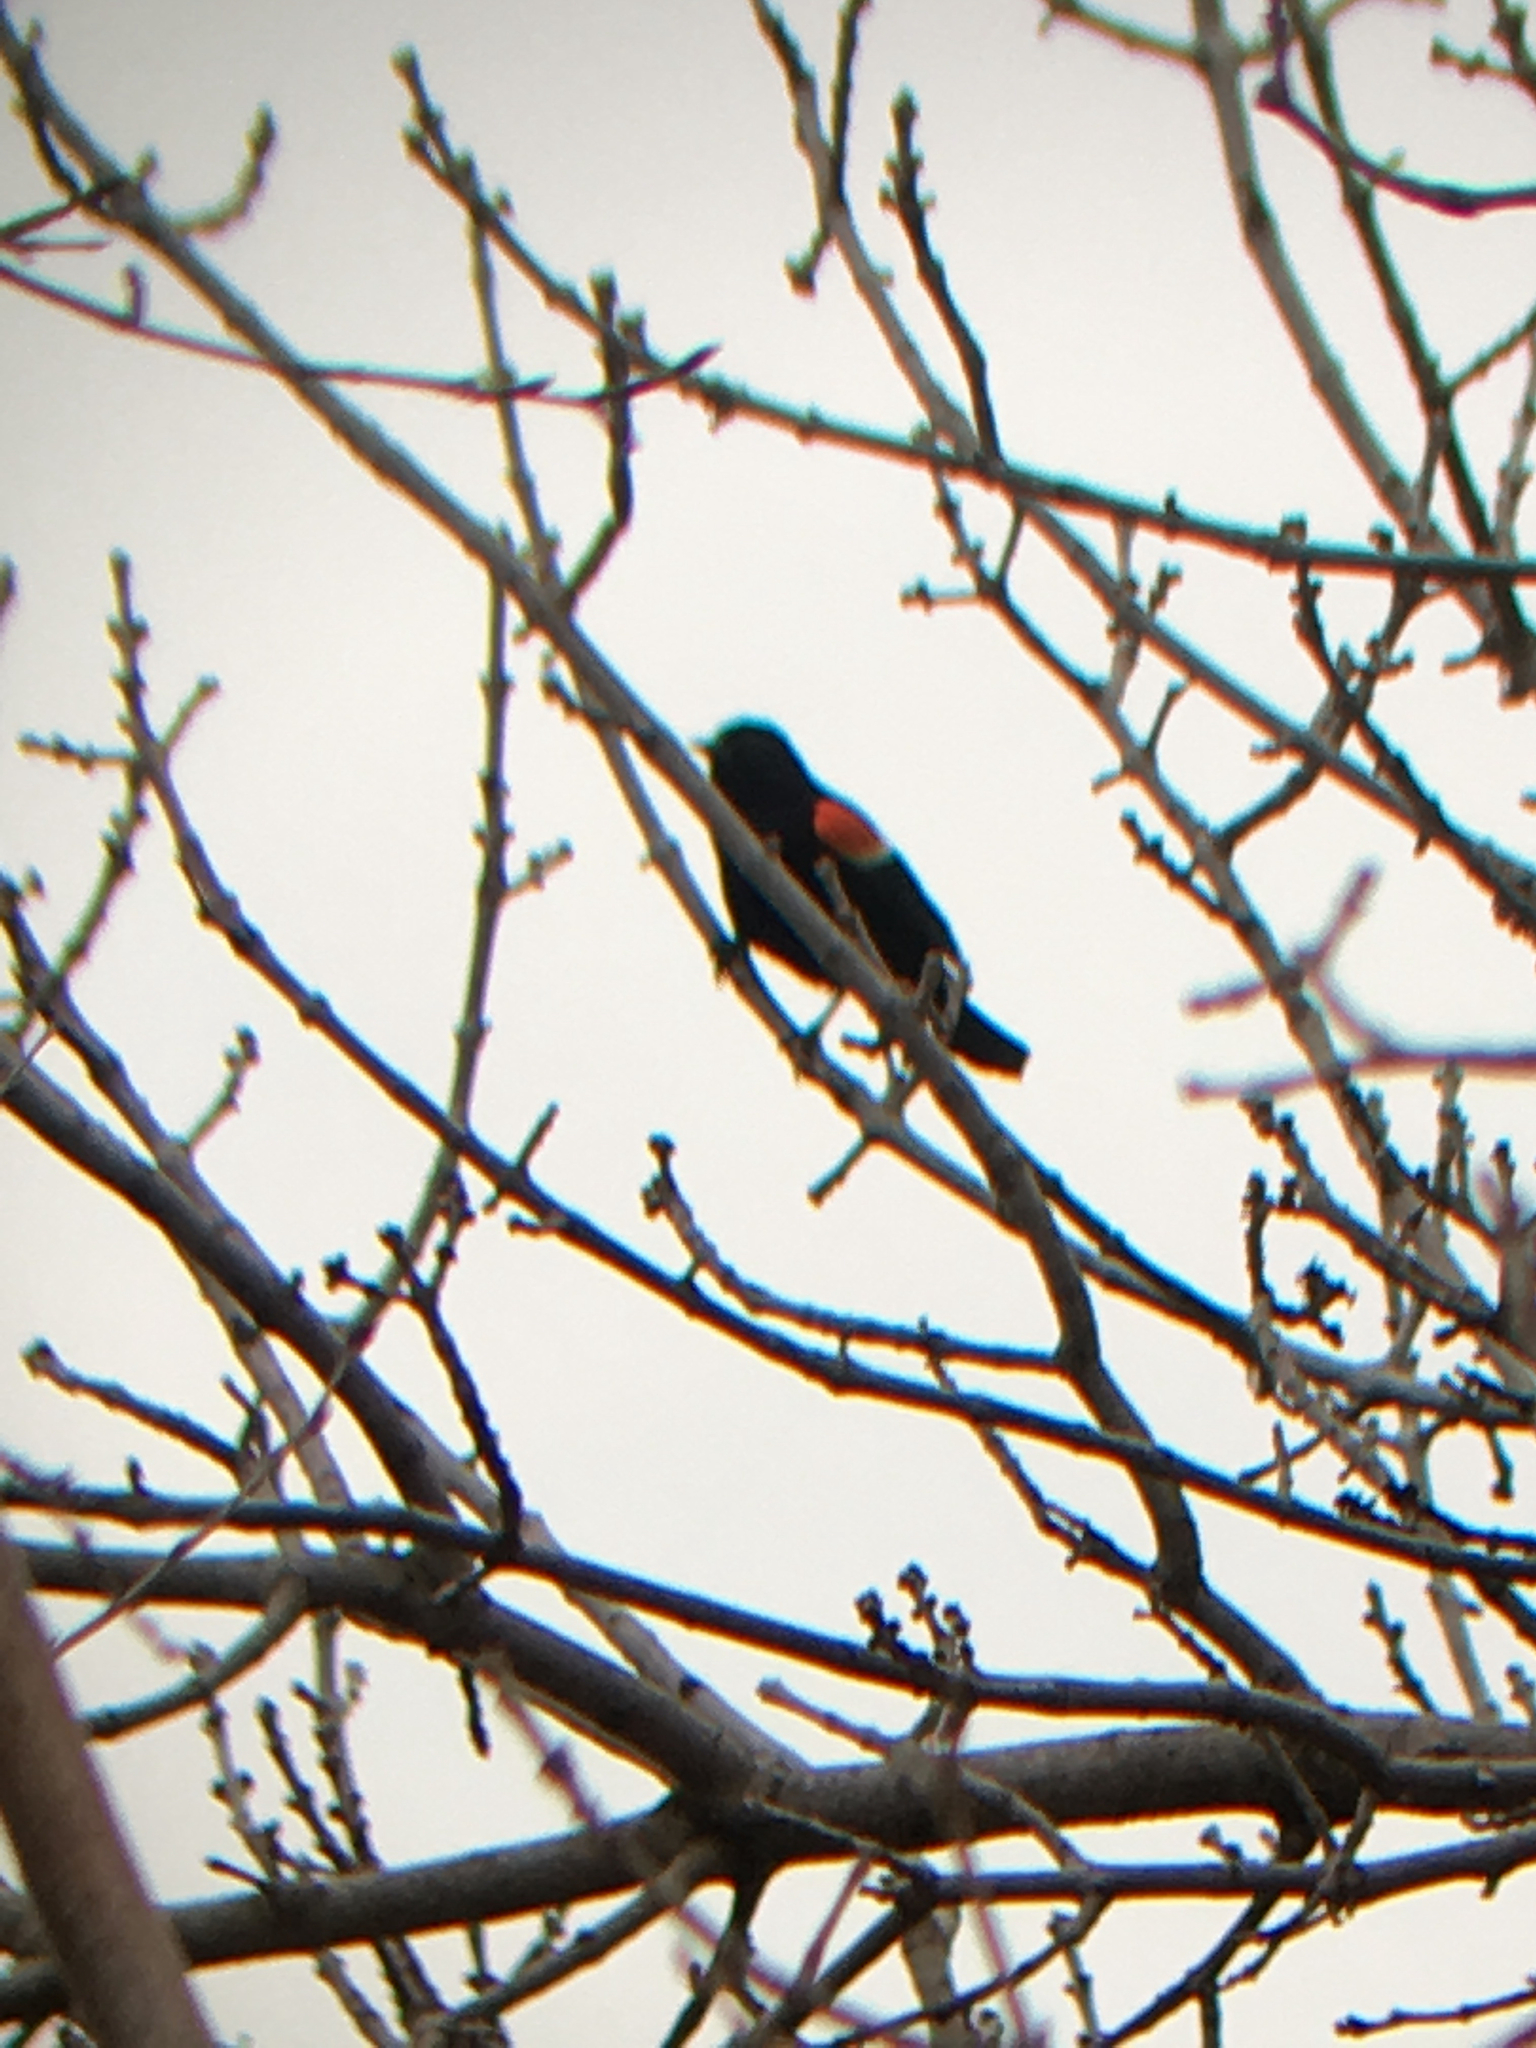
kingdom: Animalia
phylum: Chordata
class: Aves
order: Passeriformes
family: Icteridae
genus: Agelaius
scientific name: Agelaius phoeniceus
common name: Red-winged blackbird
